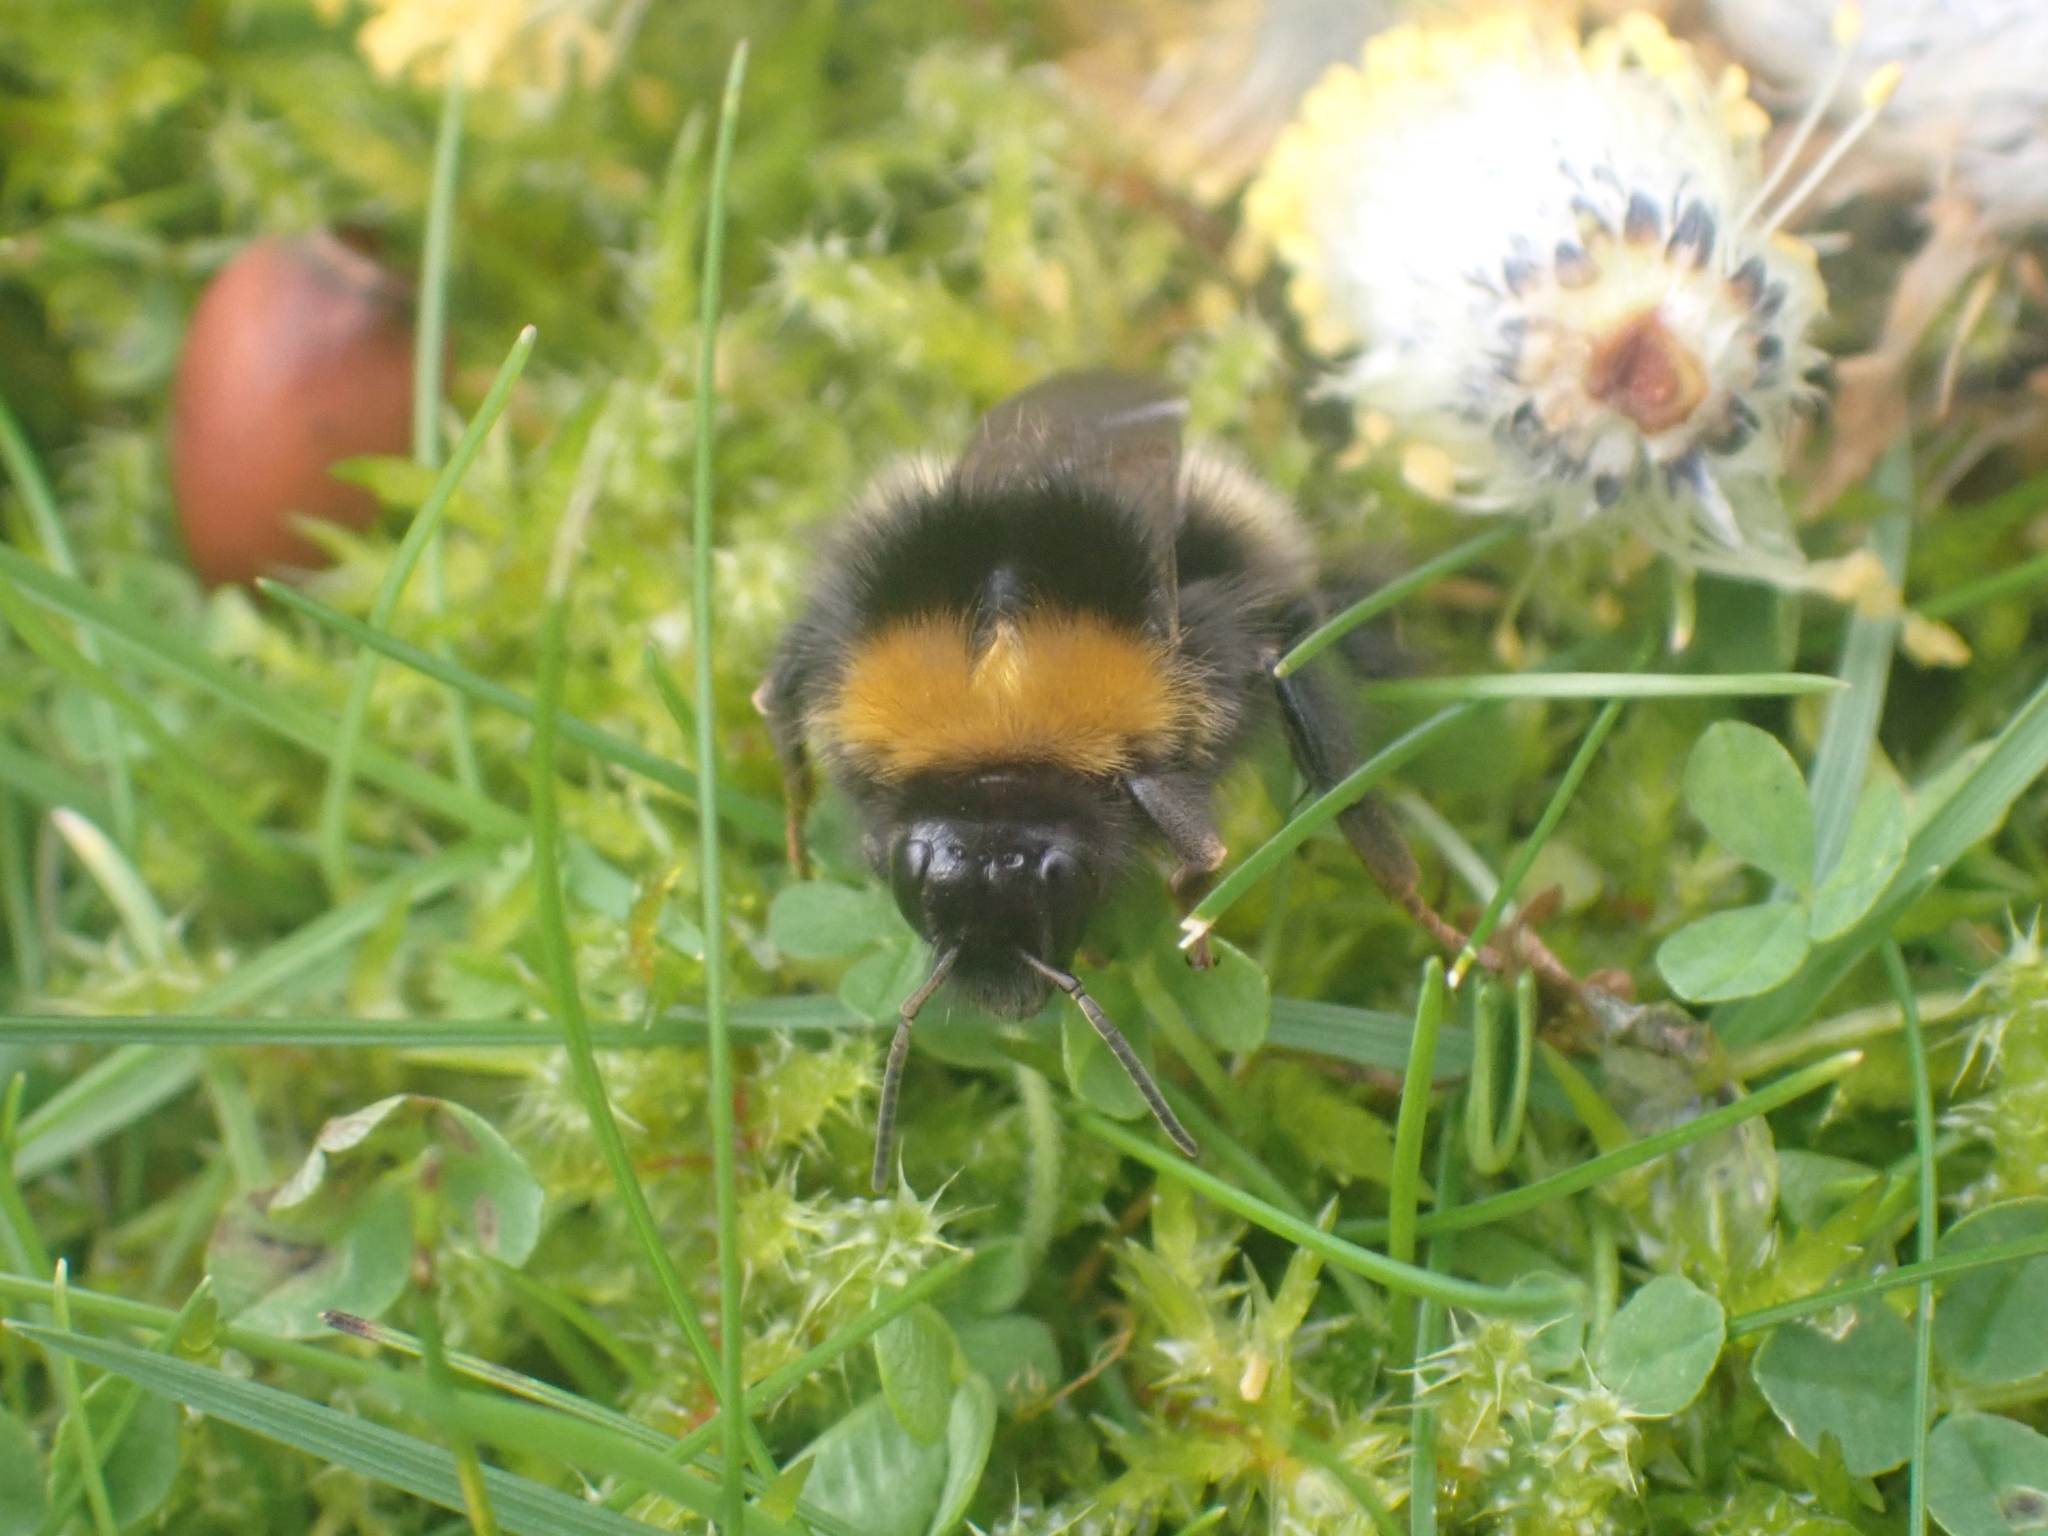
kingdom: Animalia
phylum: Arthropoda
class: Insecta
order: Hymenoptera
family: Apidae
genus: Bombus
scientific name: Bombus pratorum
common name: Early humble-bee
